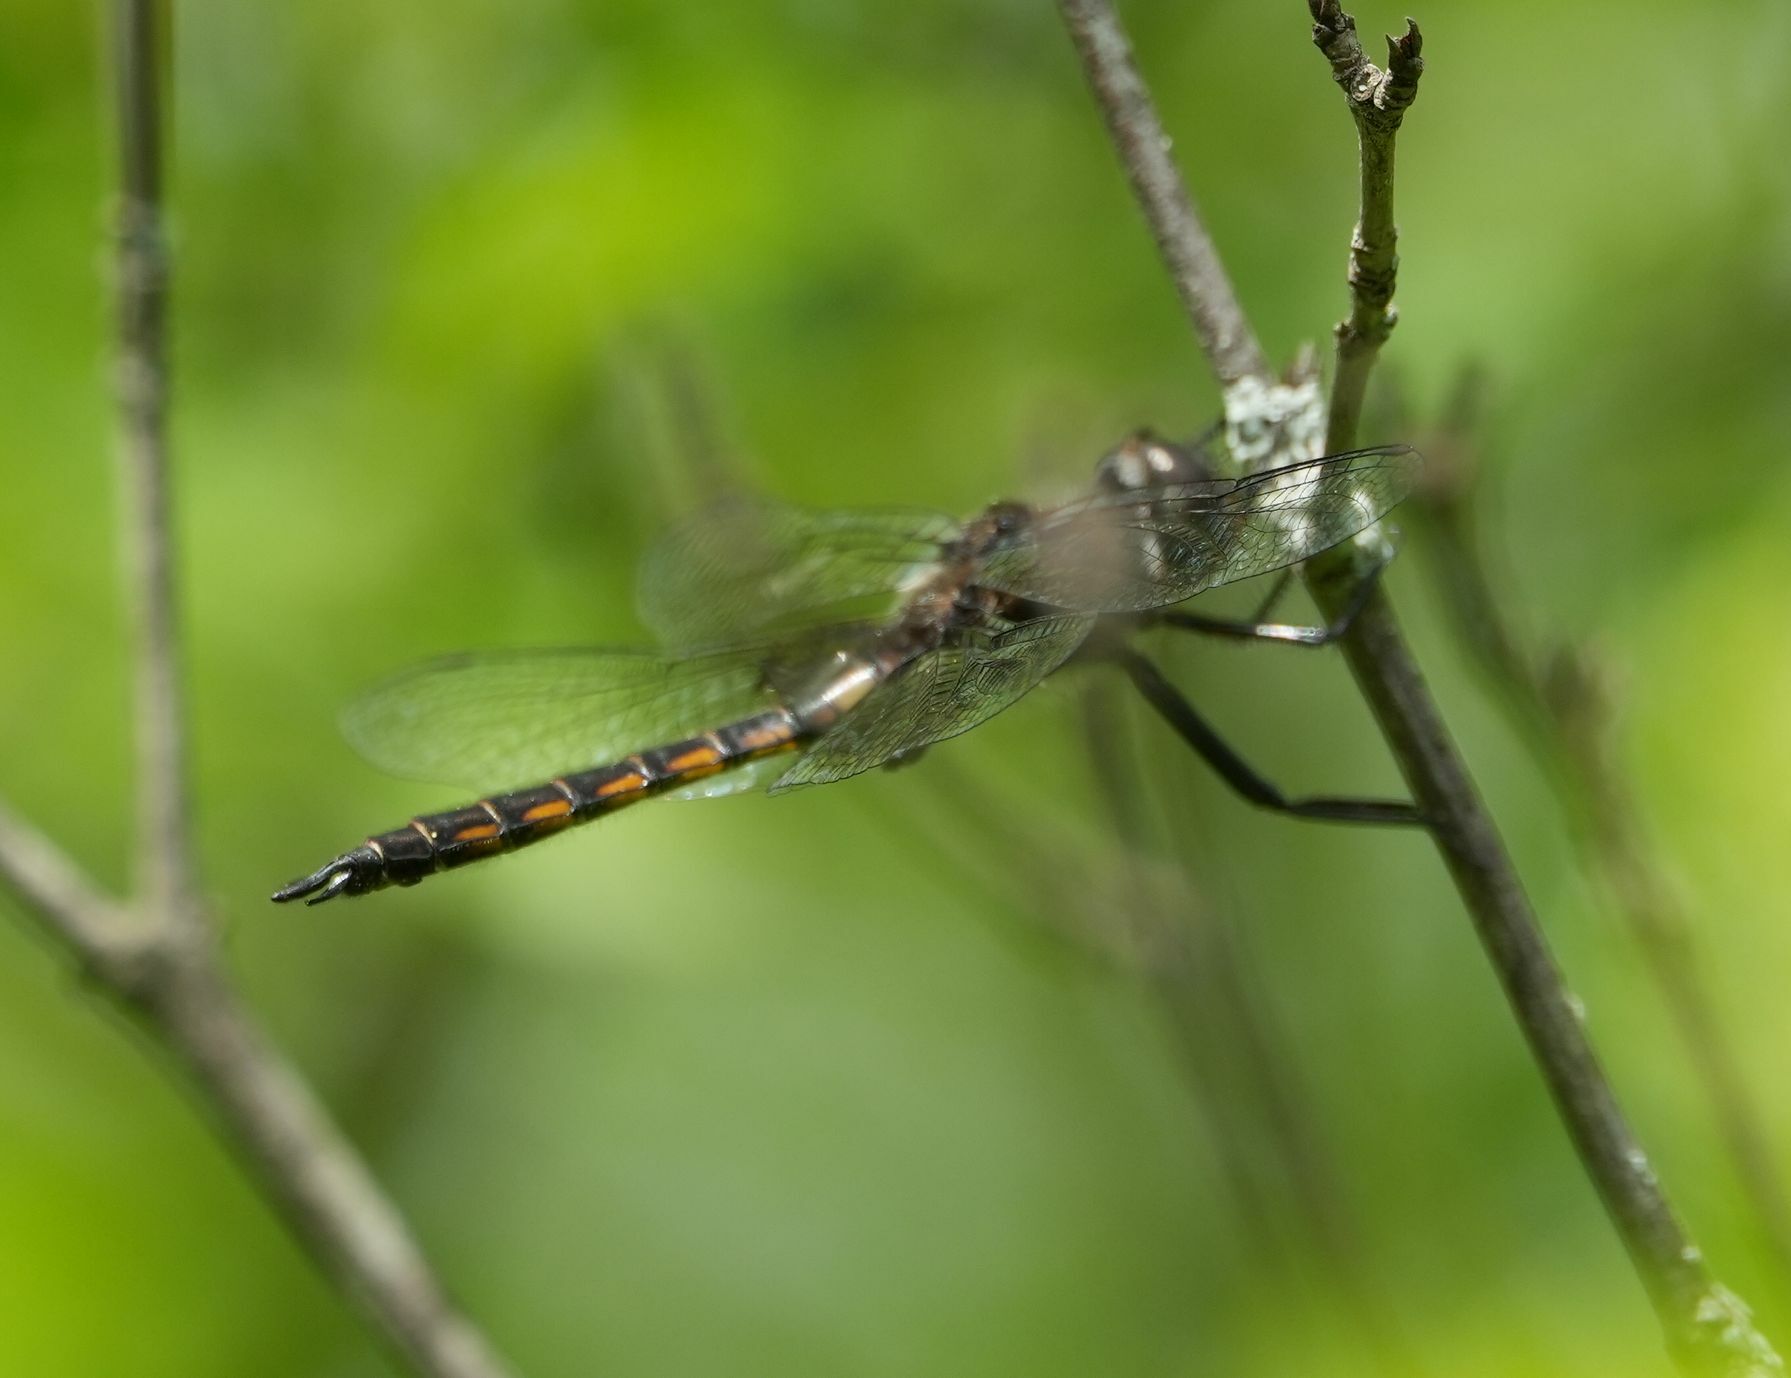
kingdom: Animalia
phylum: Arthropoda
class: Insecta
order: Odonata
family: Corduliidae
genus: Epitheca
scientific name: Epitheca cynosura
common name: Common baskettail
